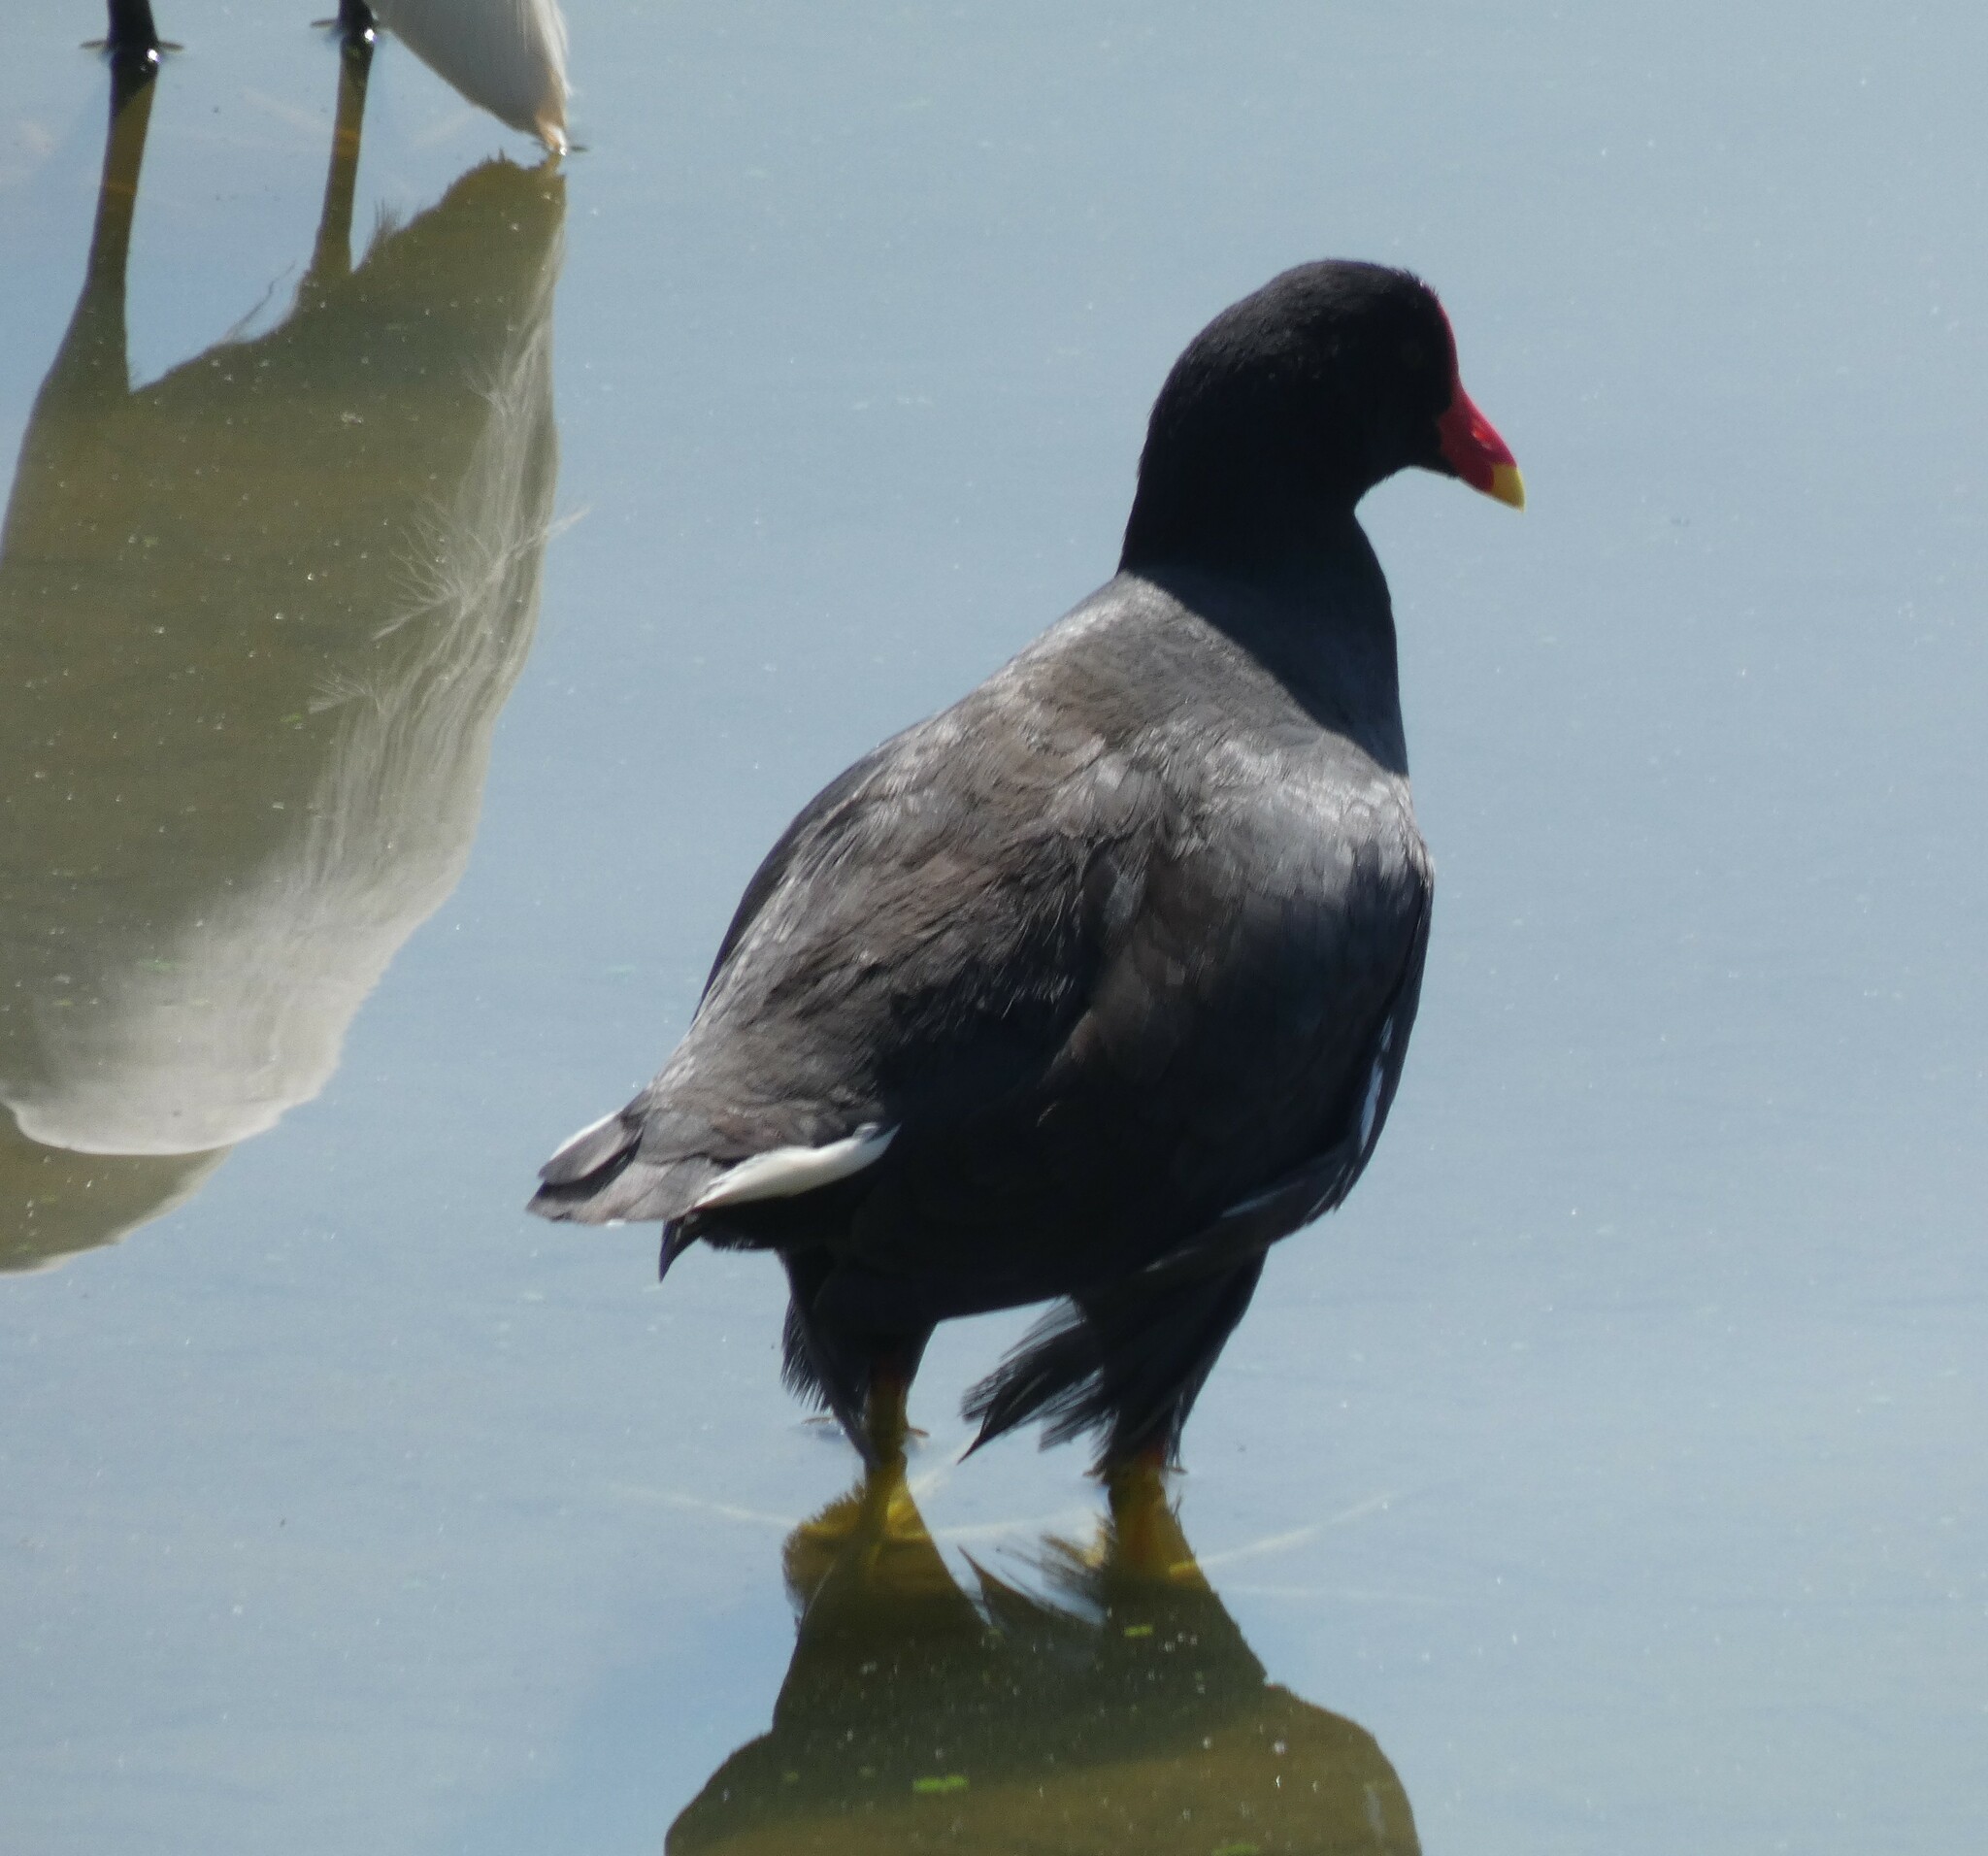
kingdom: Animalia
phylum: Chordata
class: Aves
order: Gruiformes
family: Rallidae
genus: Gallinula
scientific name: Gallinula chloropus
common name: Common moorhen
